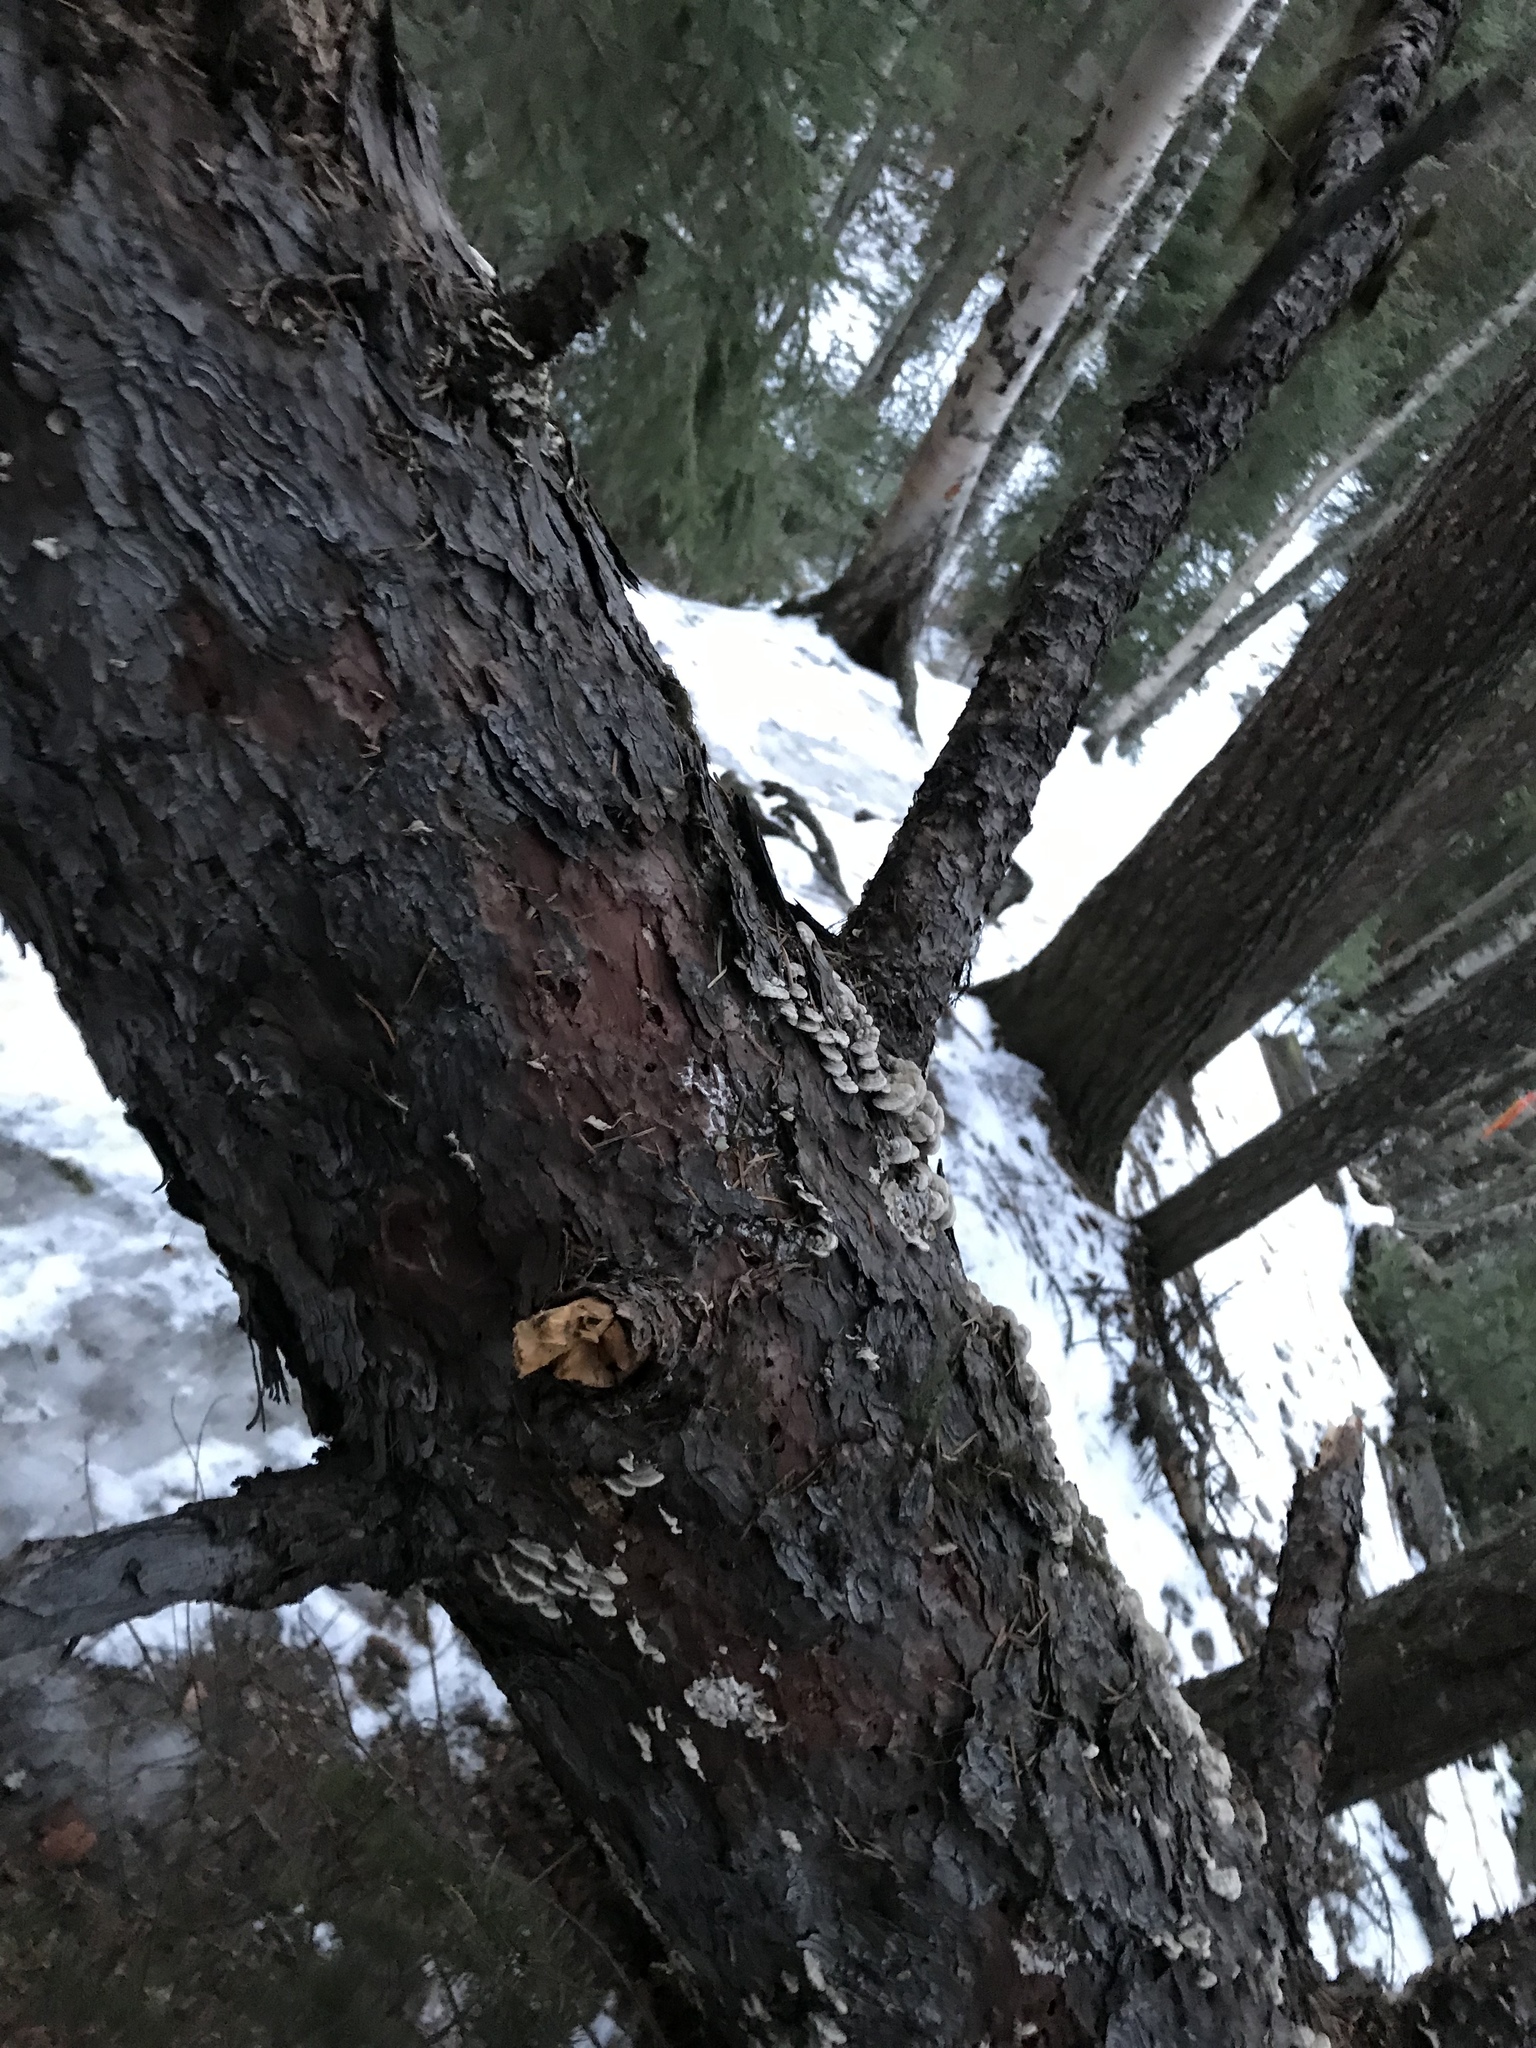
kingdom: Fungi
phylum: Basidiomycota
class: Agaricomycetes
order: Hymenochaetales
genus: Trichaptum
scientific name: Trichaptum abietinum
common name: Purplepore bracket
